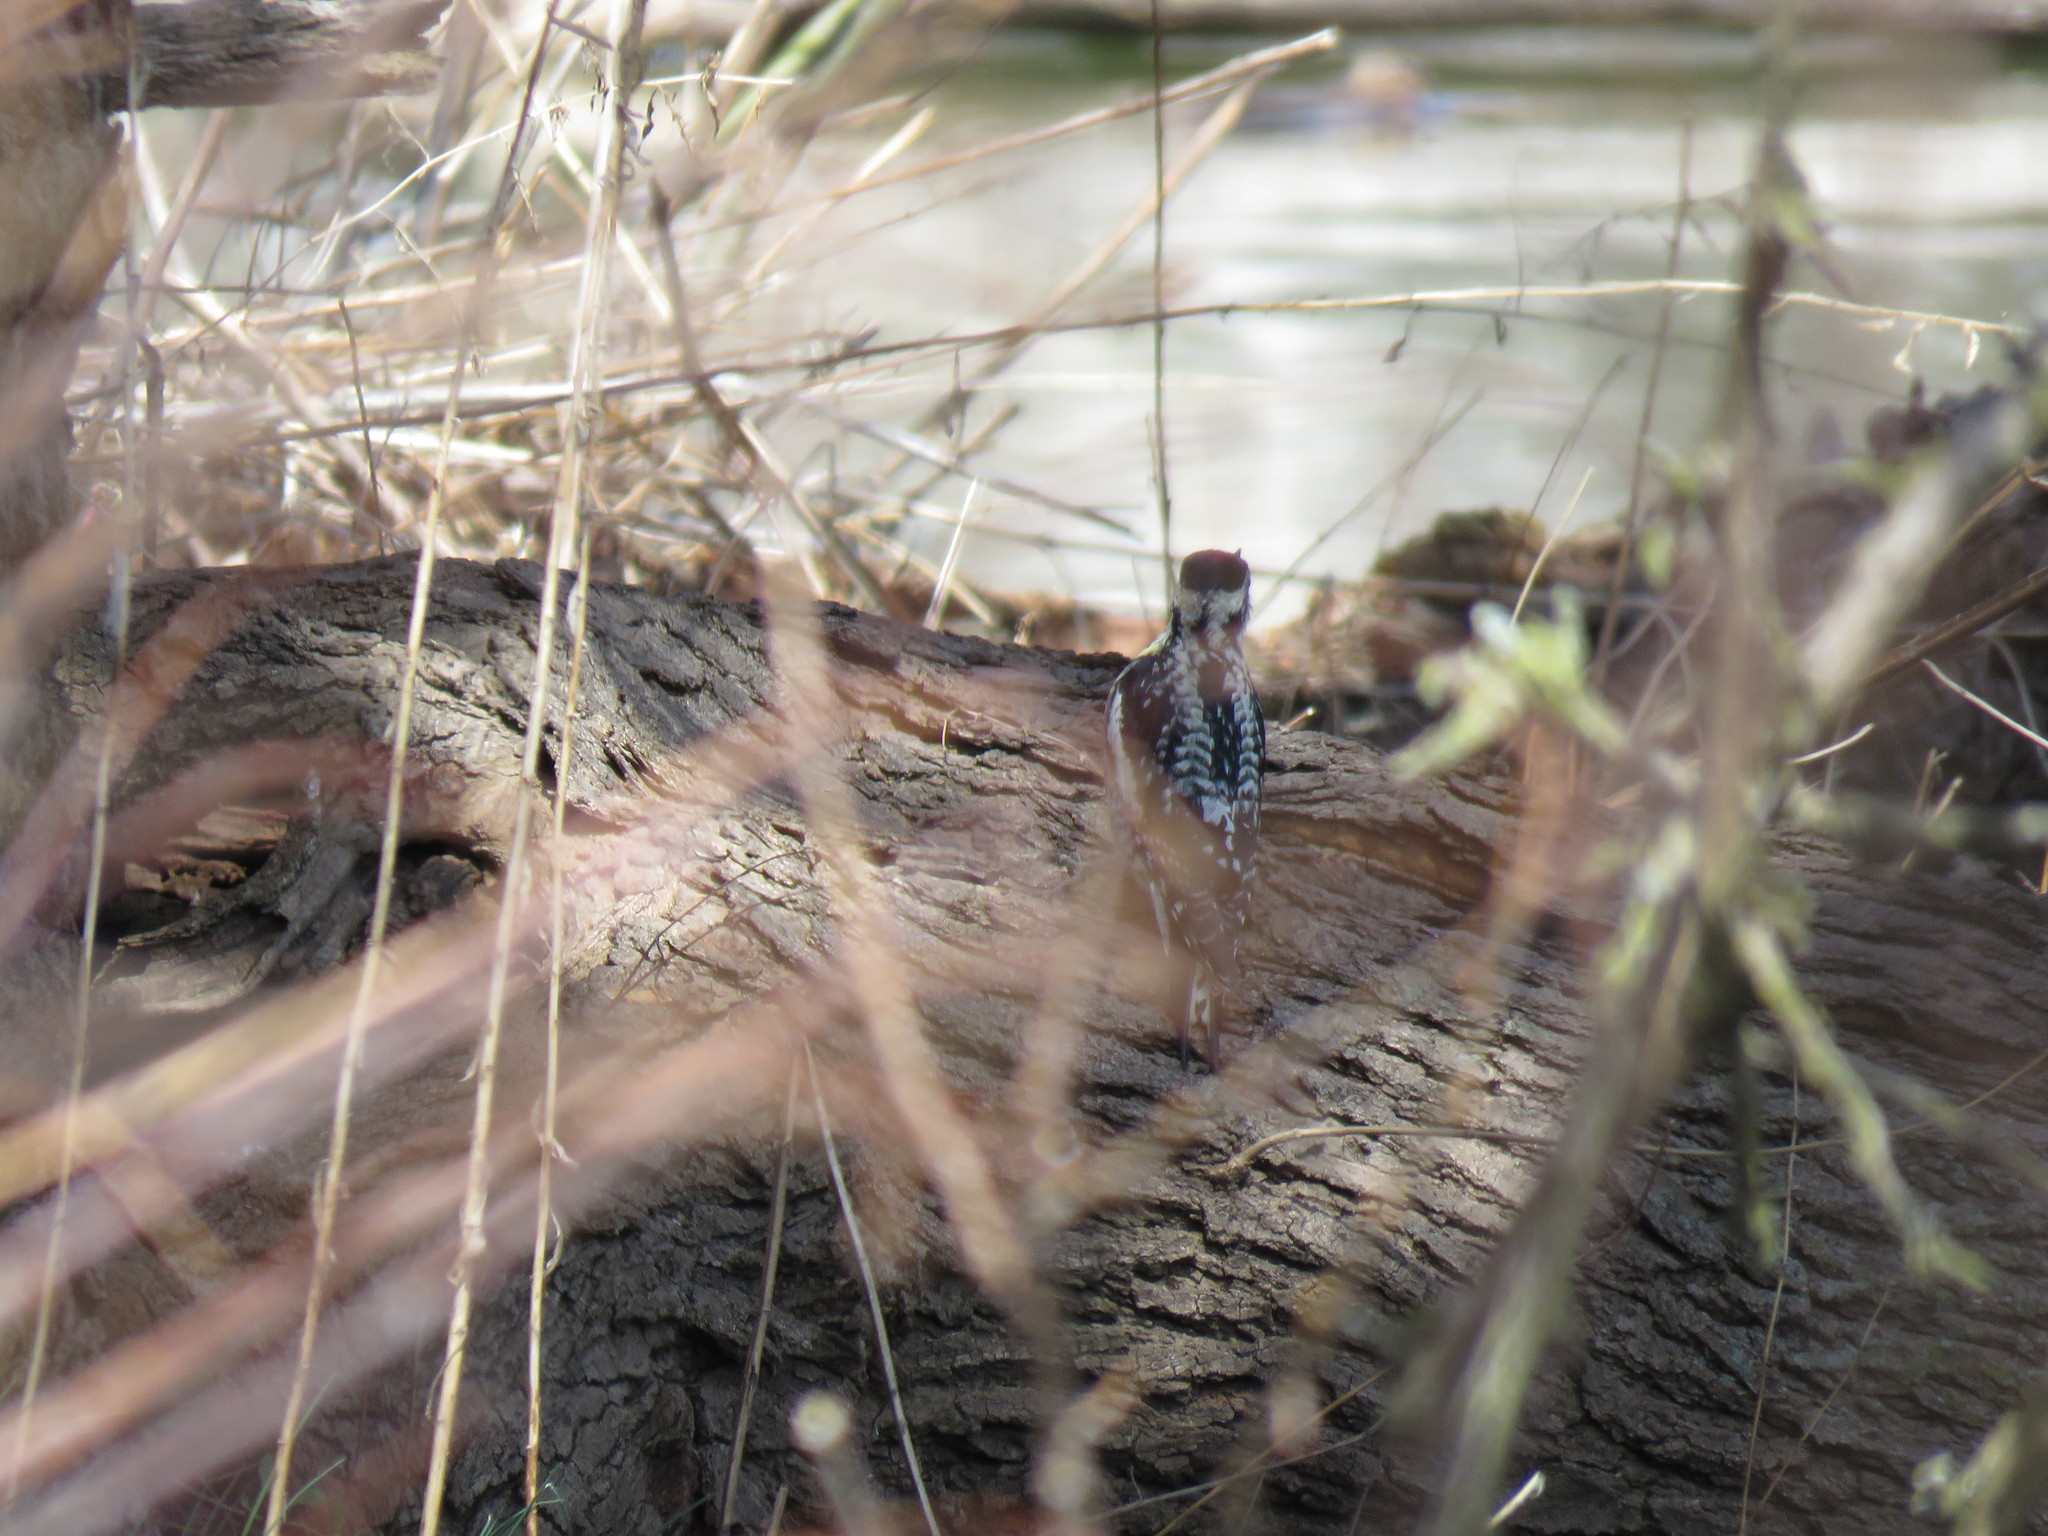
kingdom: Animalia
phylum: Chordata
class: Aves
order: Piciformes
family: Picidae
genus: Sphyrapicus
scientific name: Sphyrapicus varius
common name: Yellow-bellied sapsucker
